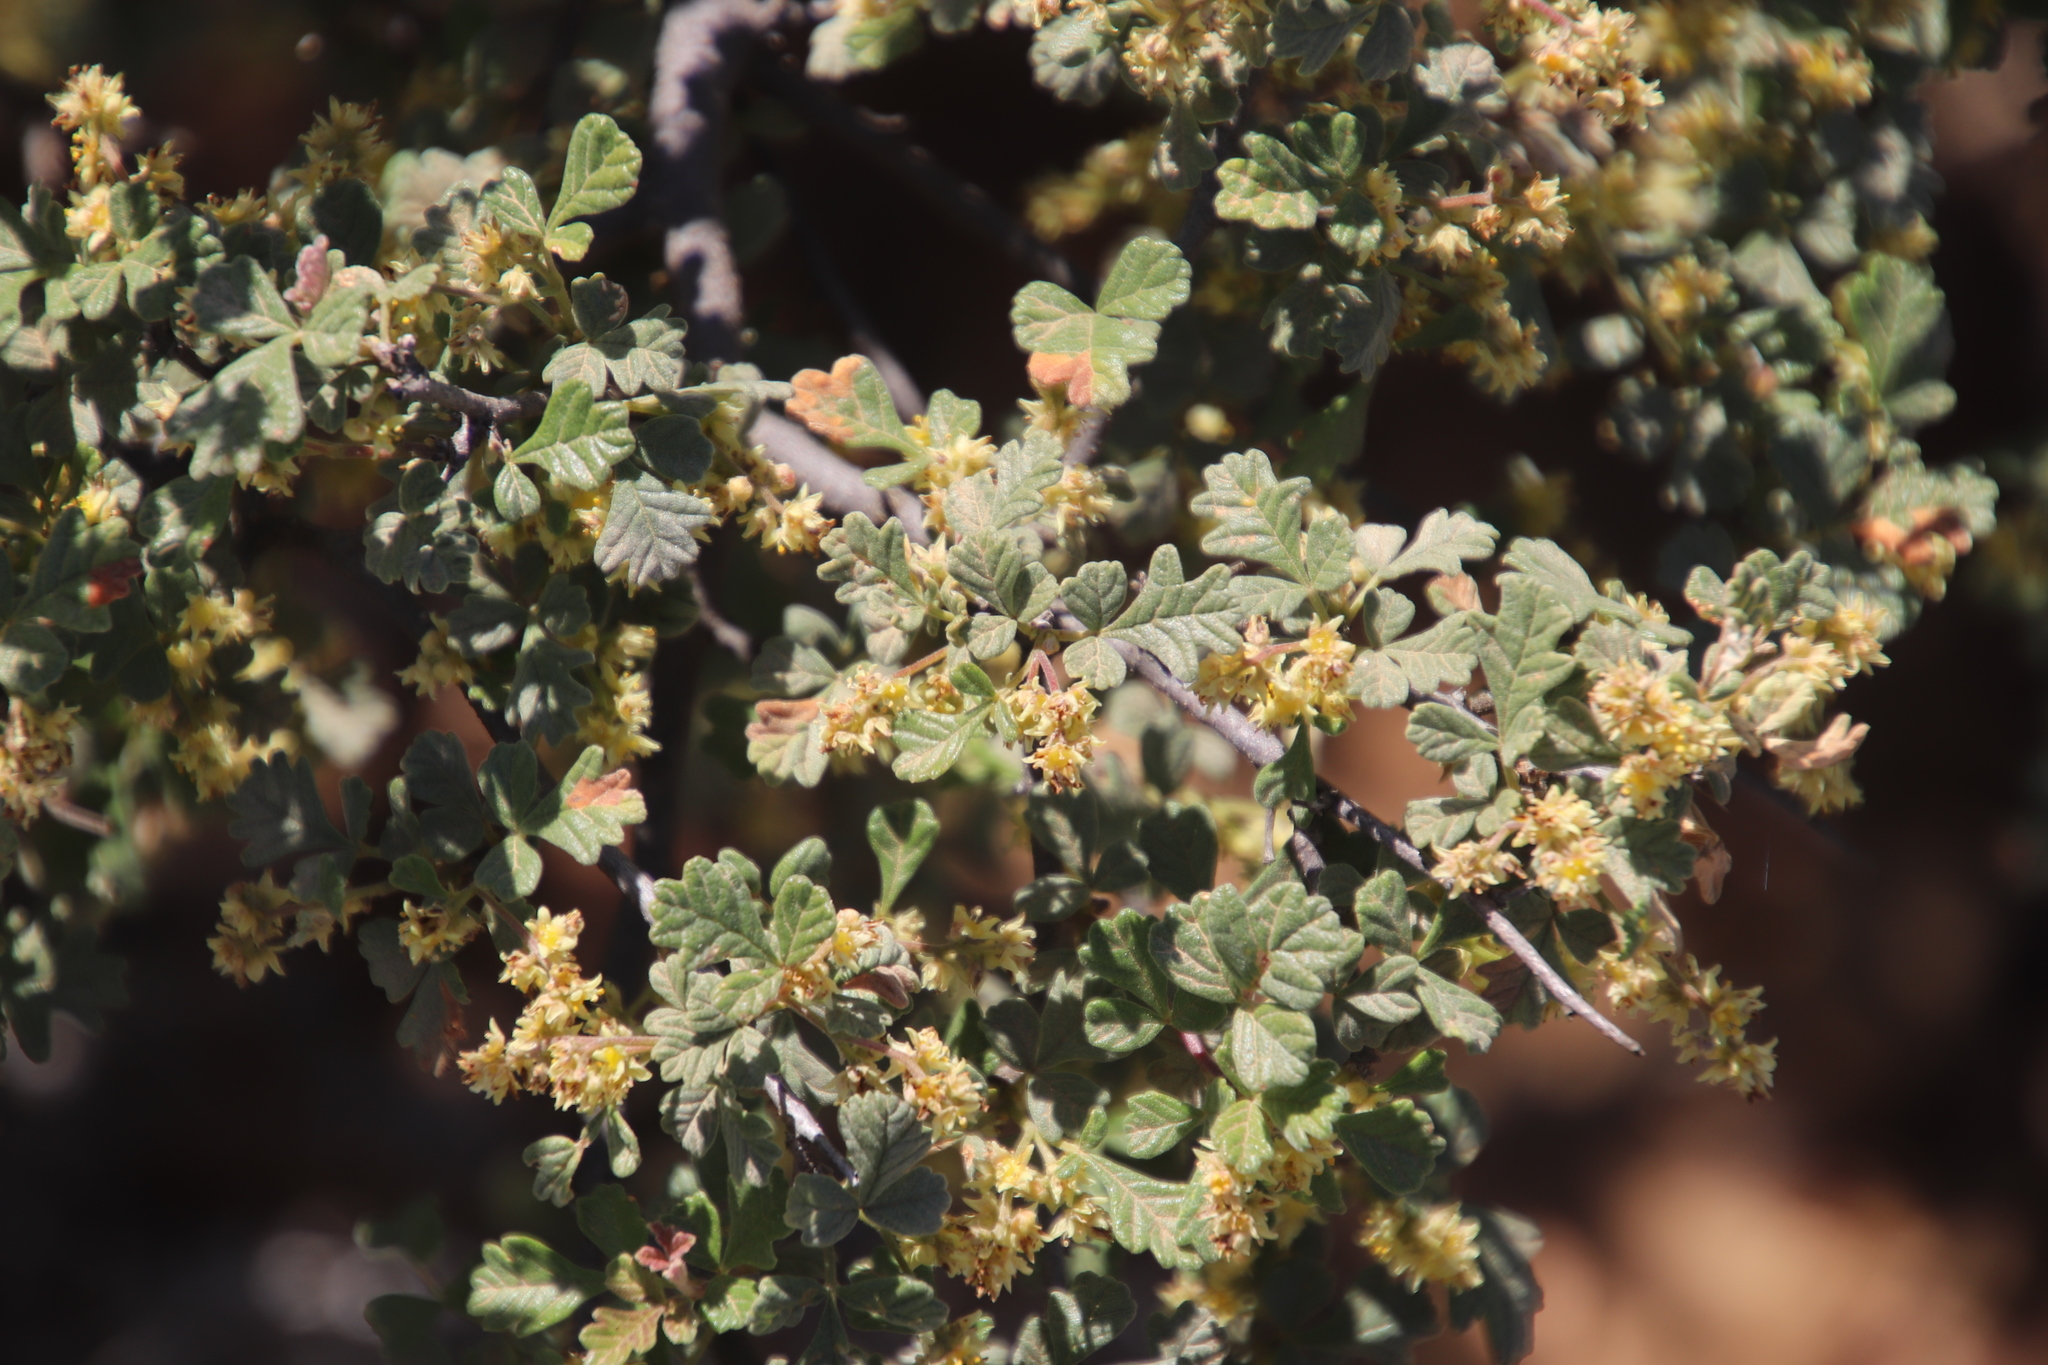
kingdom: Plantae
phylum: Tracheophyta
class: Magnoliopsida
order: Sapindales
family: Anacardiaceae
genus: Searsia
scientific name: Searsia incisa
